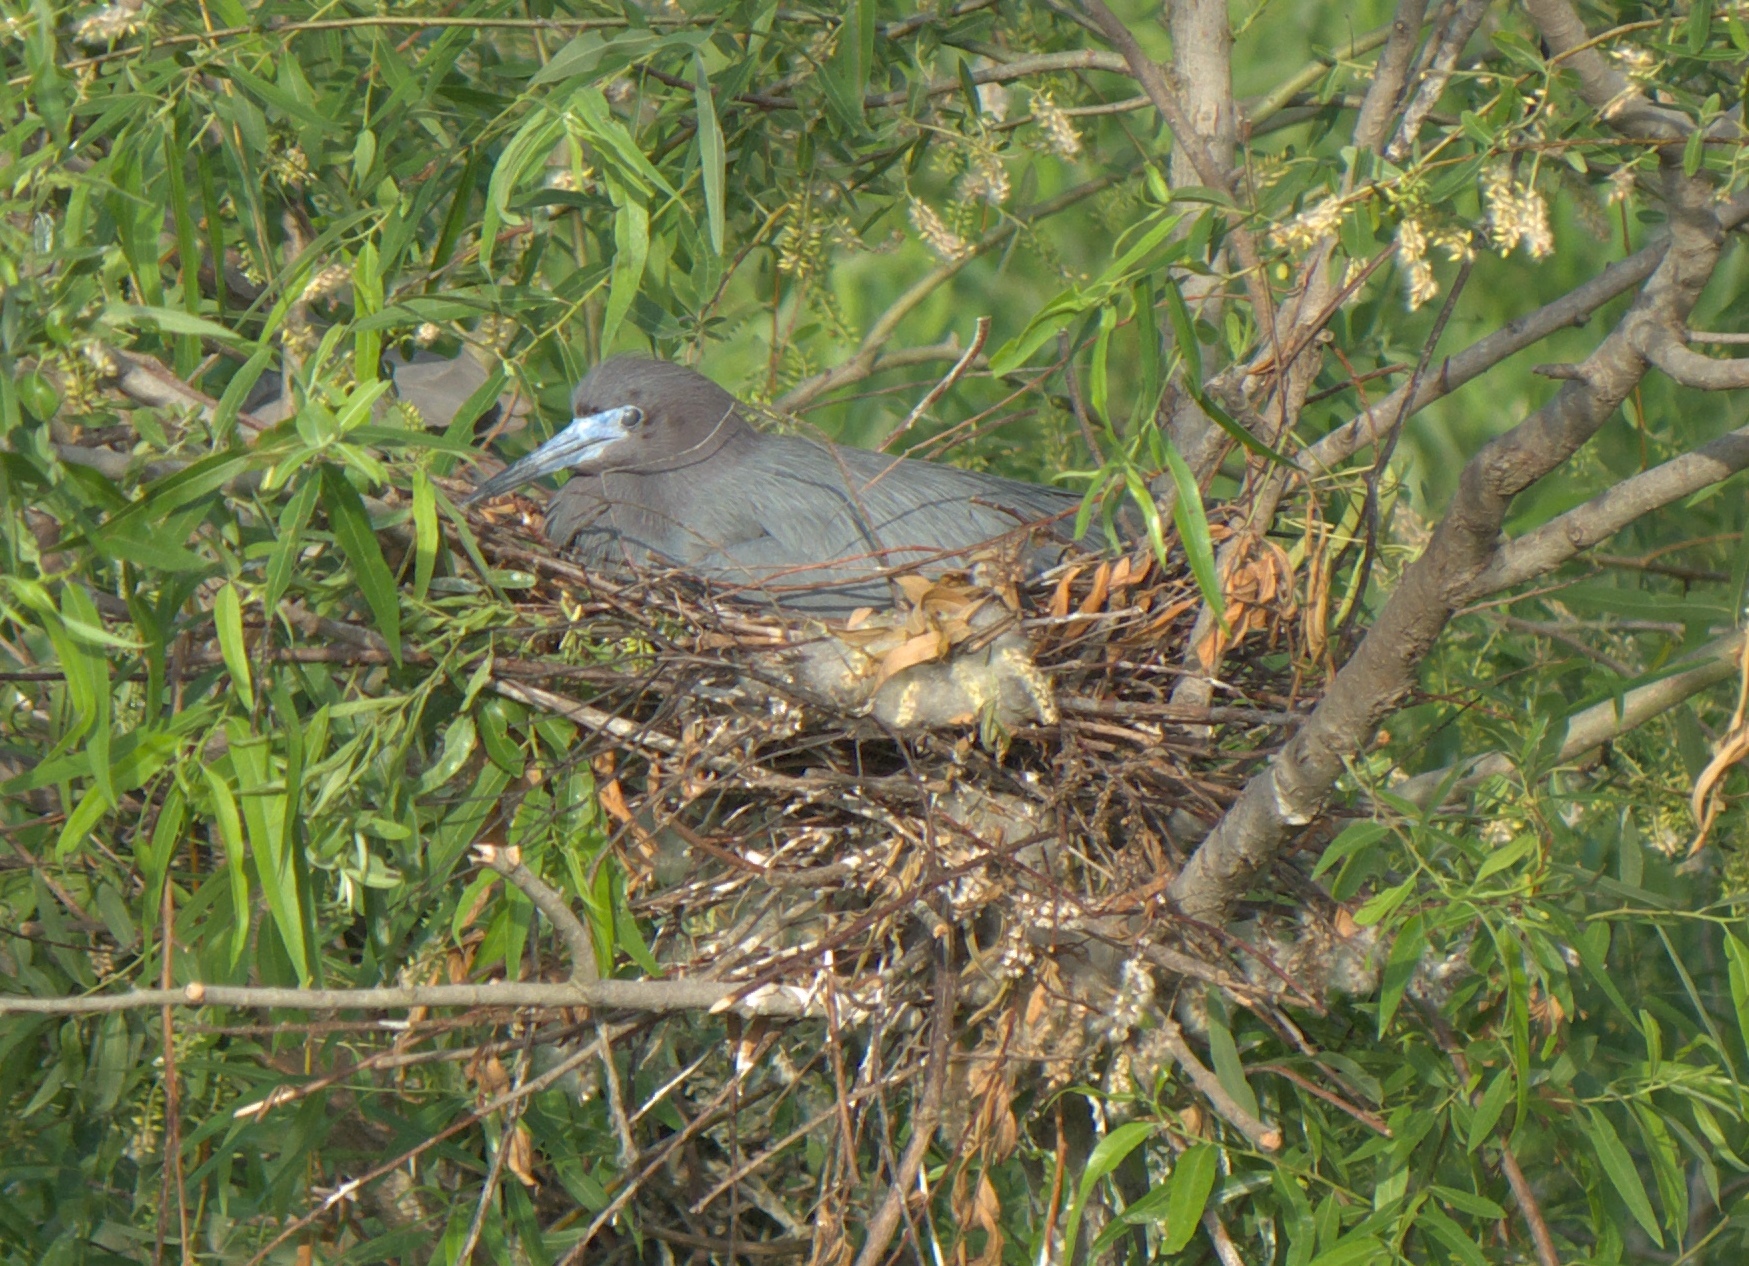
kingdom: Animalia
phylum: Chordata
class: Aves
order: Pelecaniformes
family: Ardeidae
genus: Egretta
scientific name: Egretta caerulea
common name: Little blue heron
